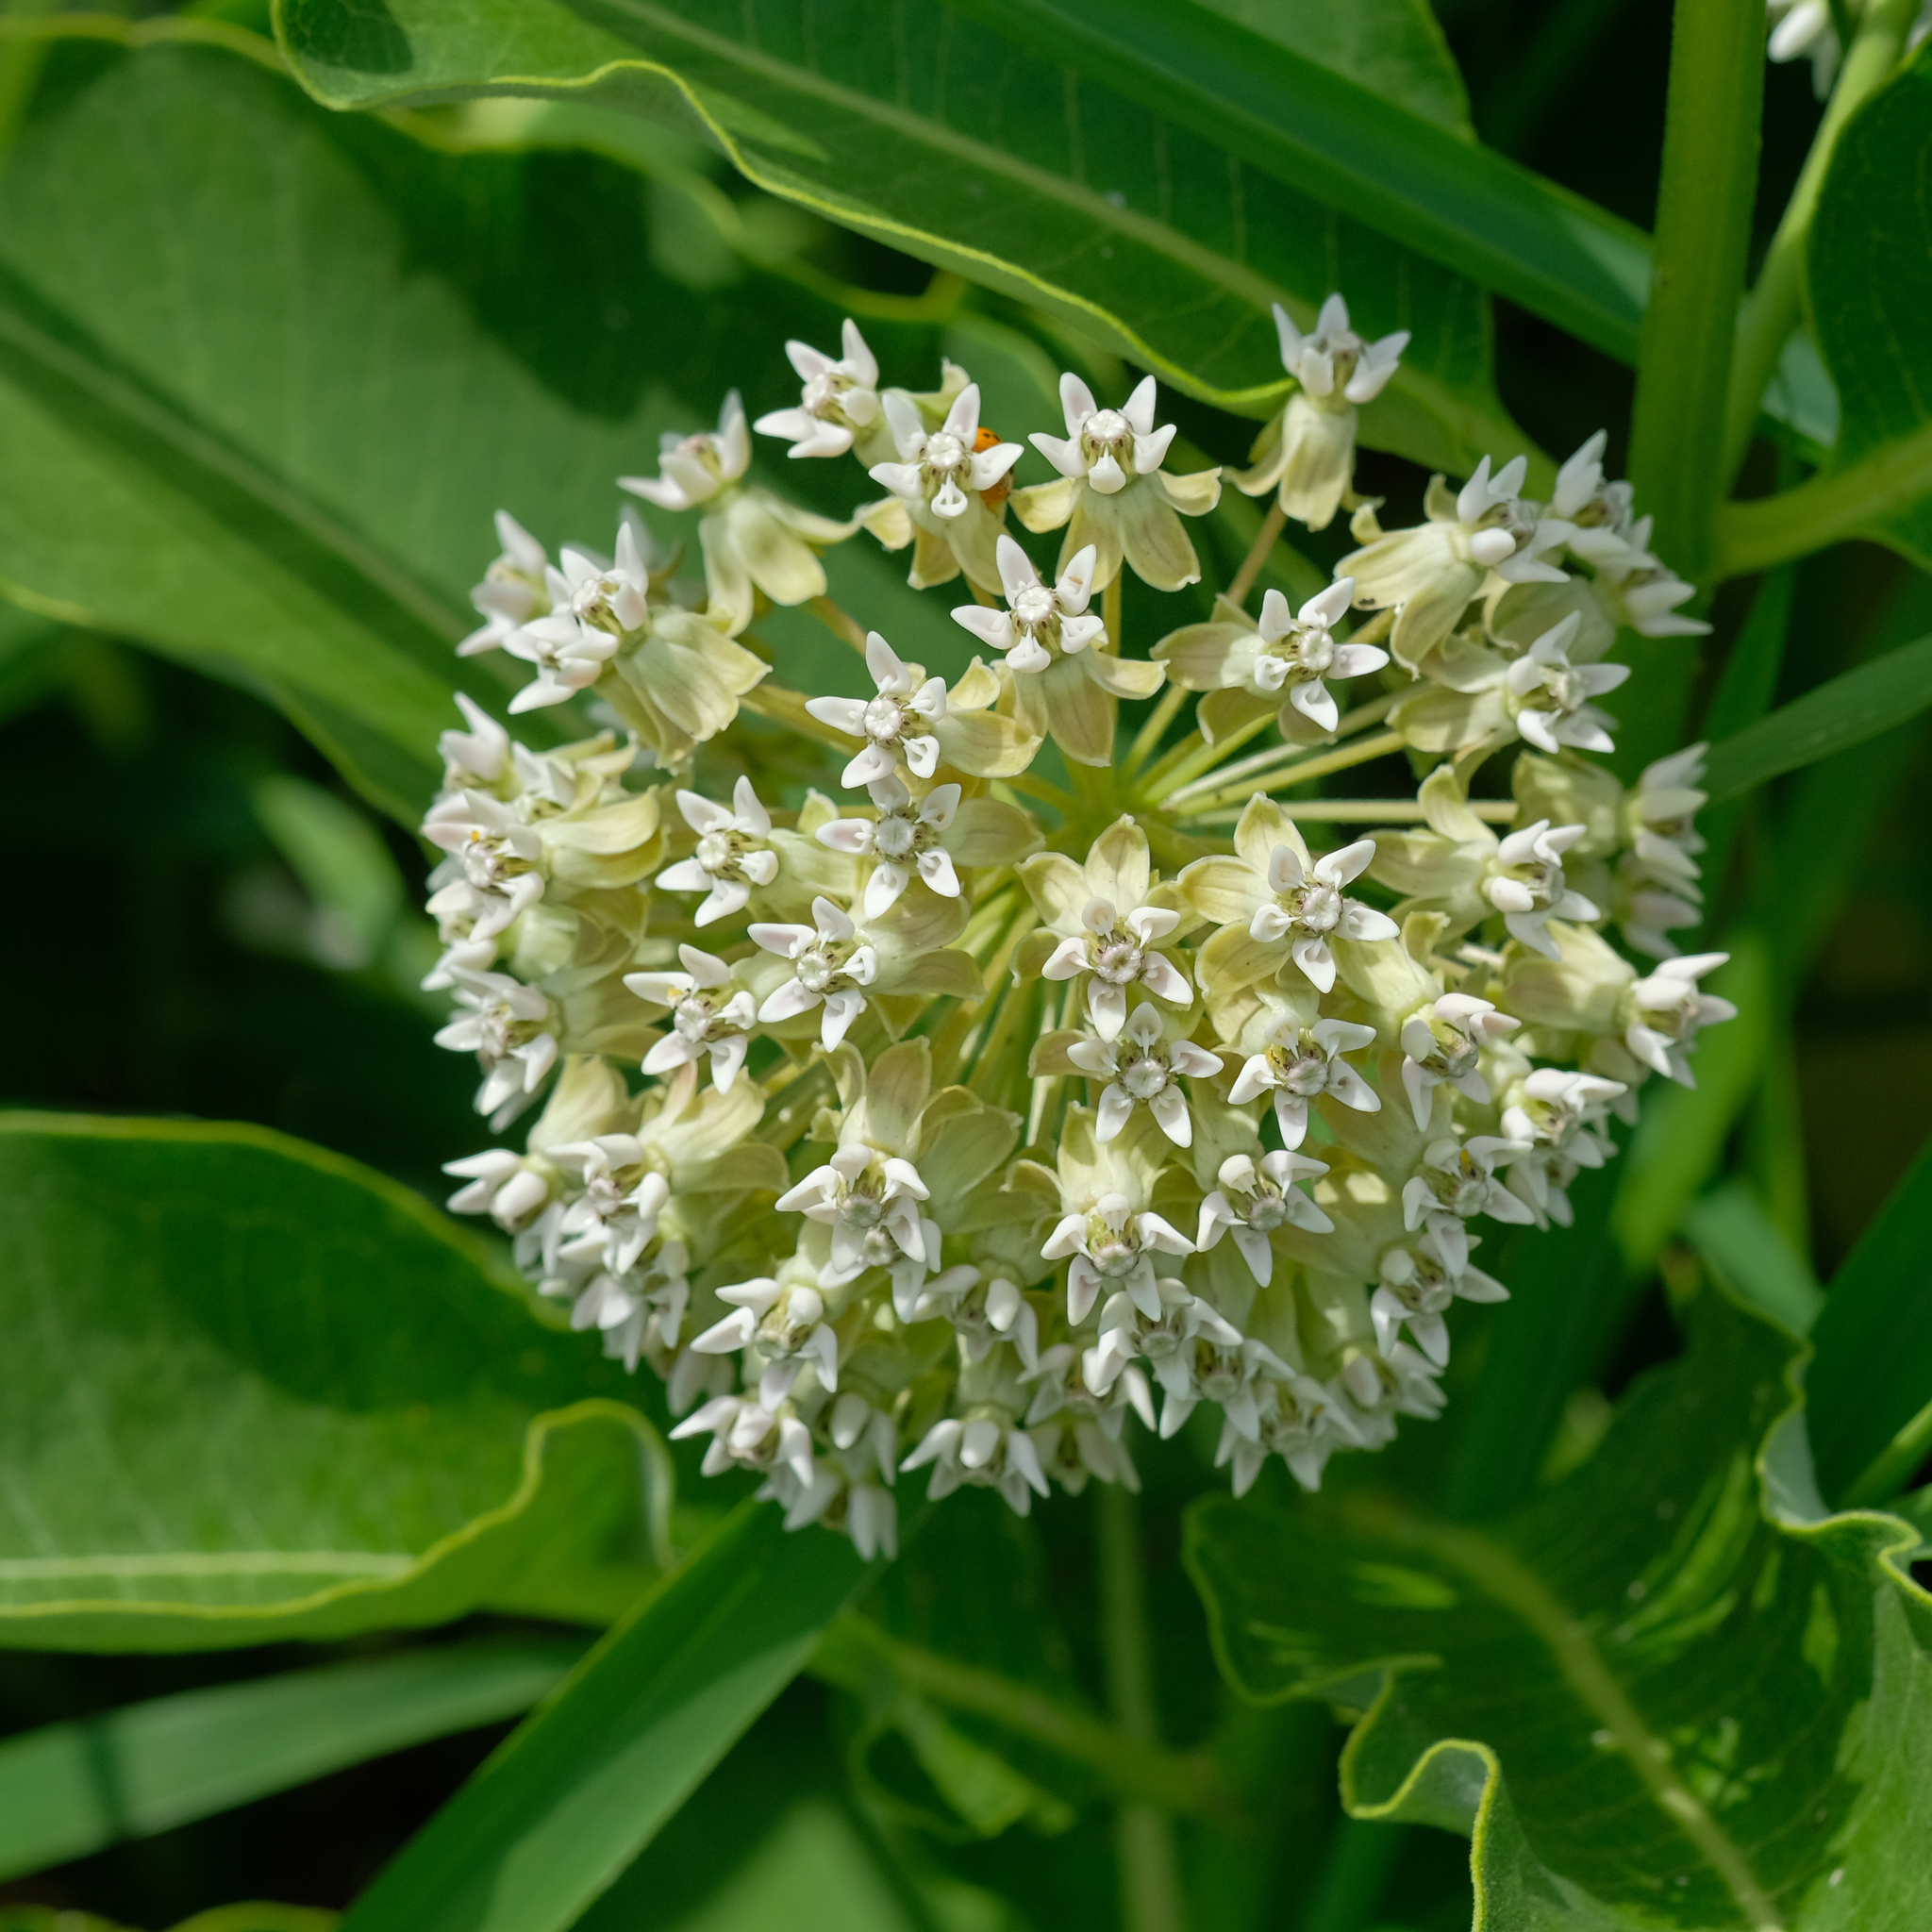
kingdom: Plantae
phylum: Tracheophyta
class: Magnoliopsida
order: Gentianales
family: Apocynaceae
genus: Asclepias
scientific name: Asclepias syriaca
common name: Common milkweed
